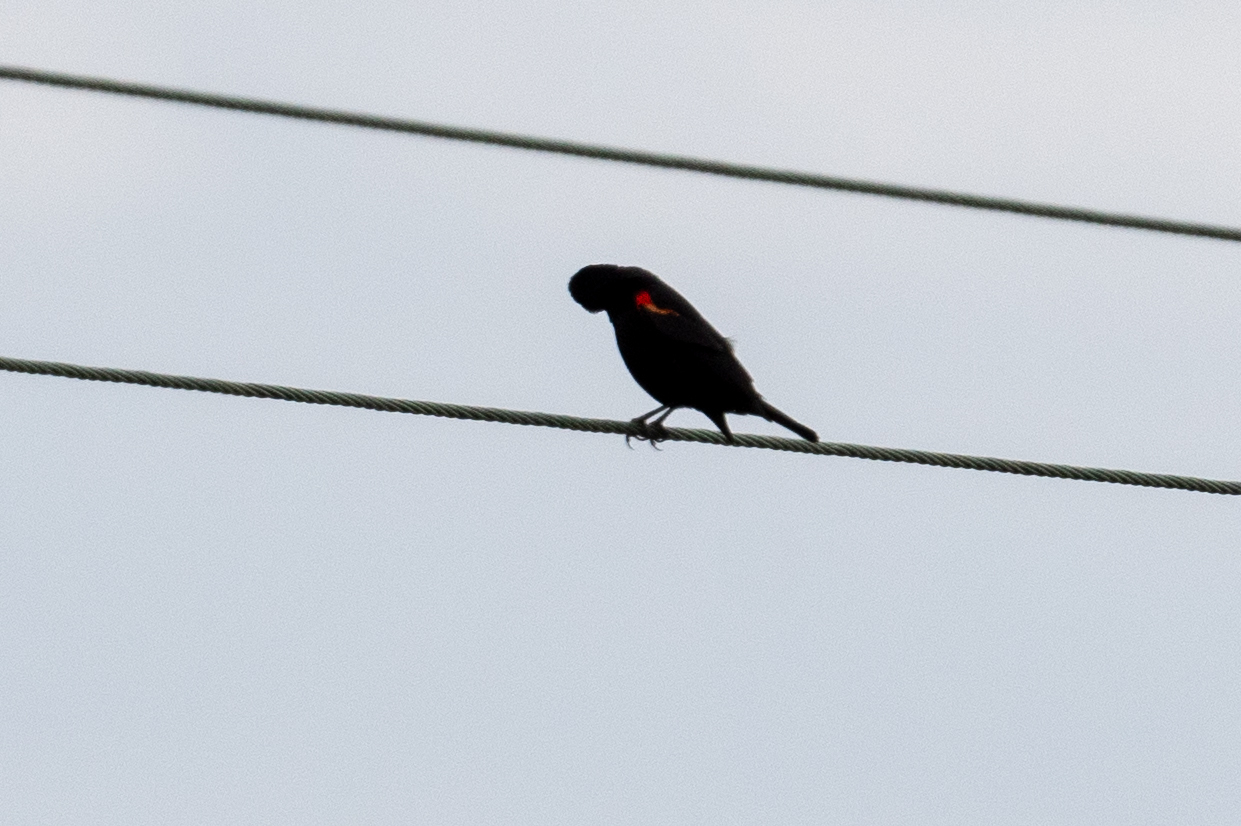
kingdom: Animalia
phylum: Chordata
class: Aves
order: Passeriformes
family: Icteridae
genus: Agelaius
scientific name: Agelaius phoeniceus
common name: Red-winged blackbird
